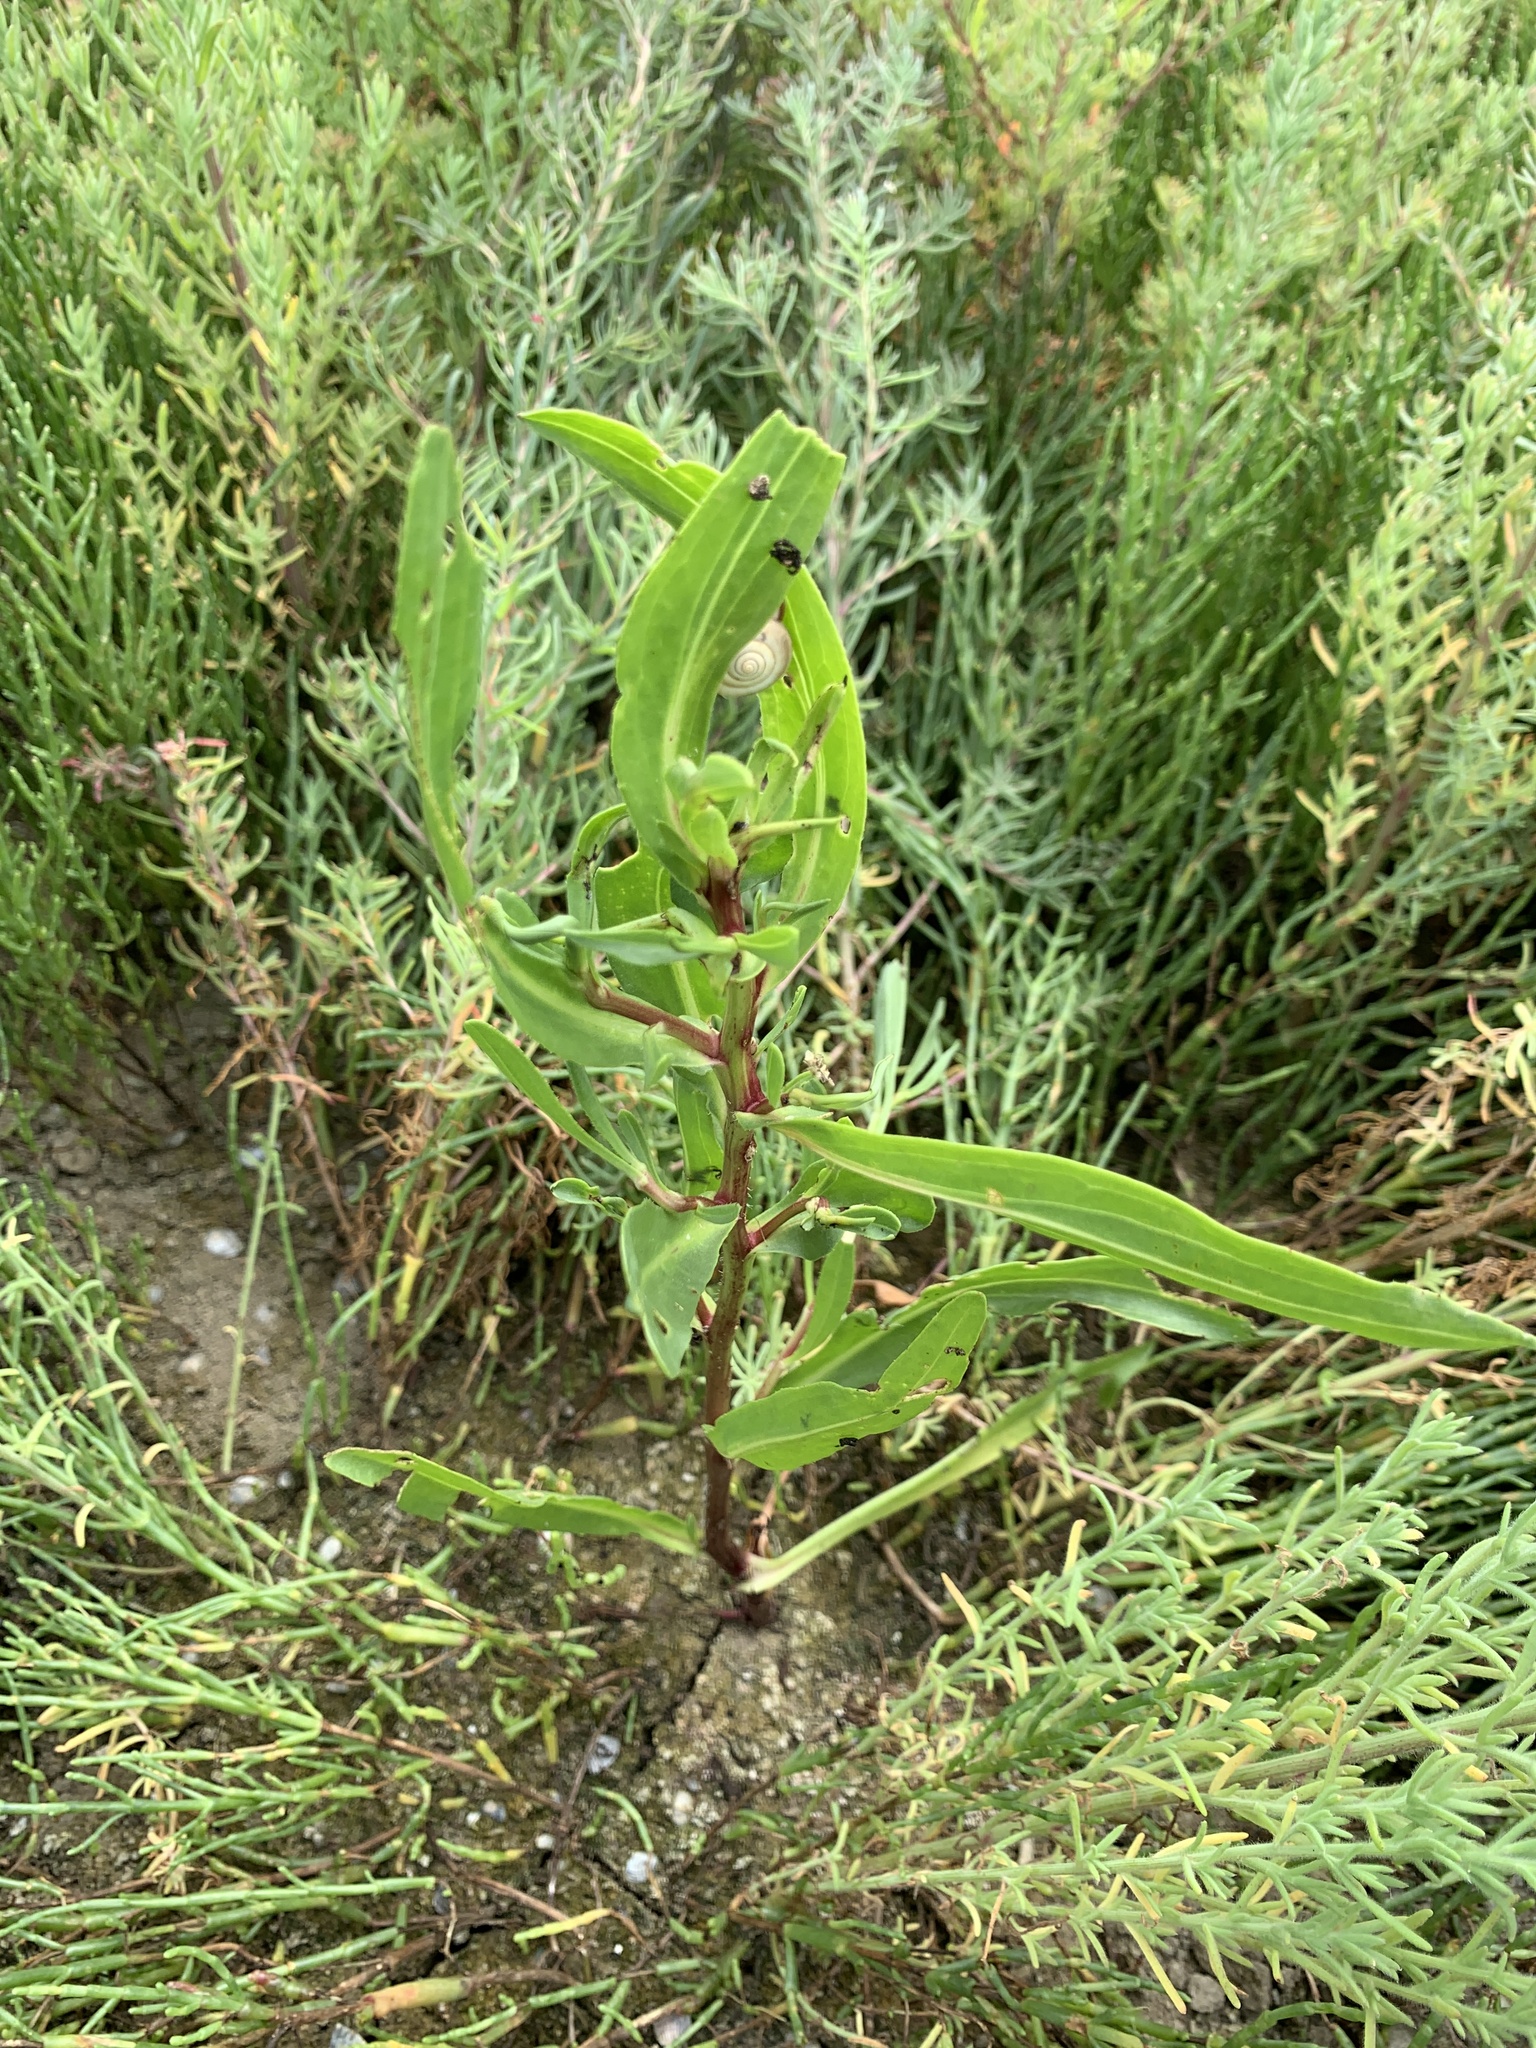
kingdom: Plantae
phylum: Tracheophyta
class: Magnoliopsida
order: Asterales
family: Asteraceae
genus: Tripolium
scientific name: Tripolium pannonicum
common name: Sea aster
